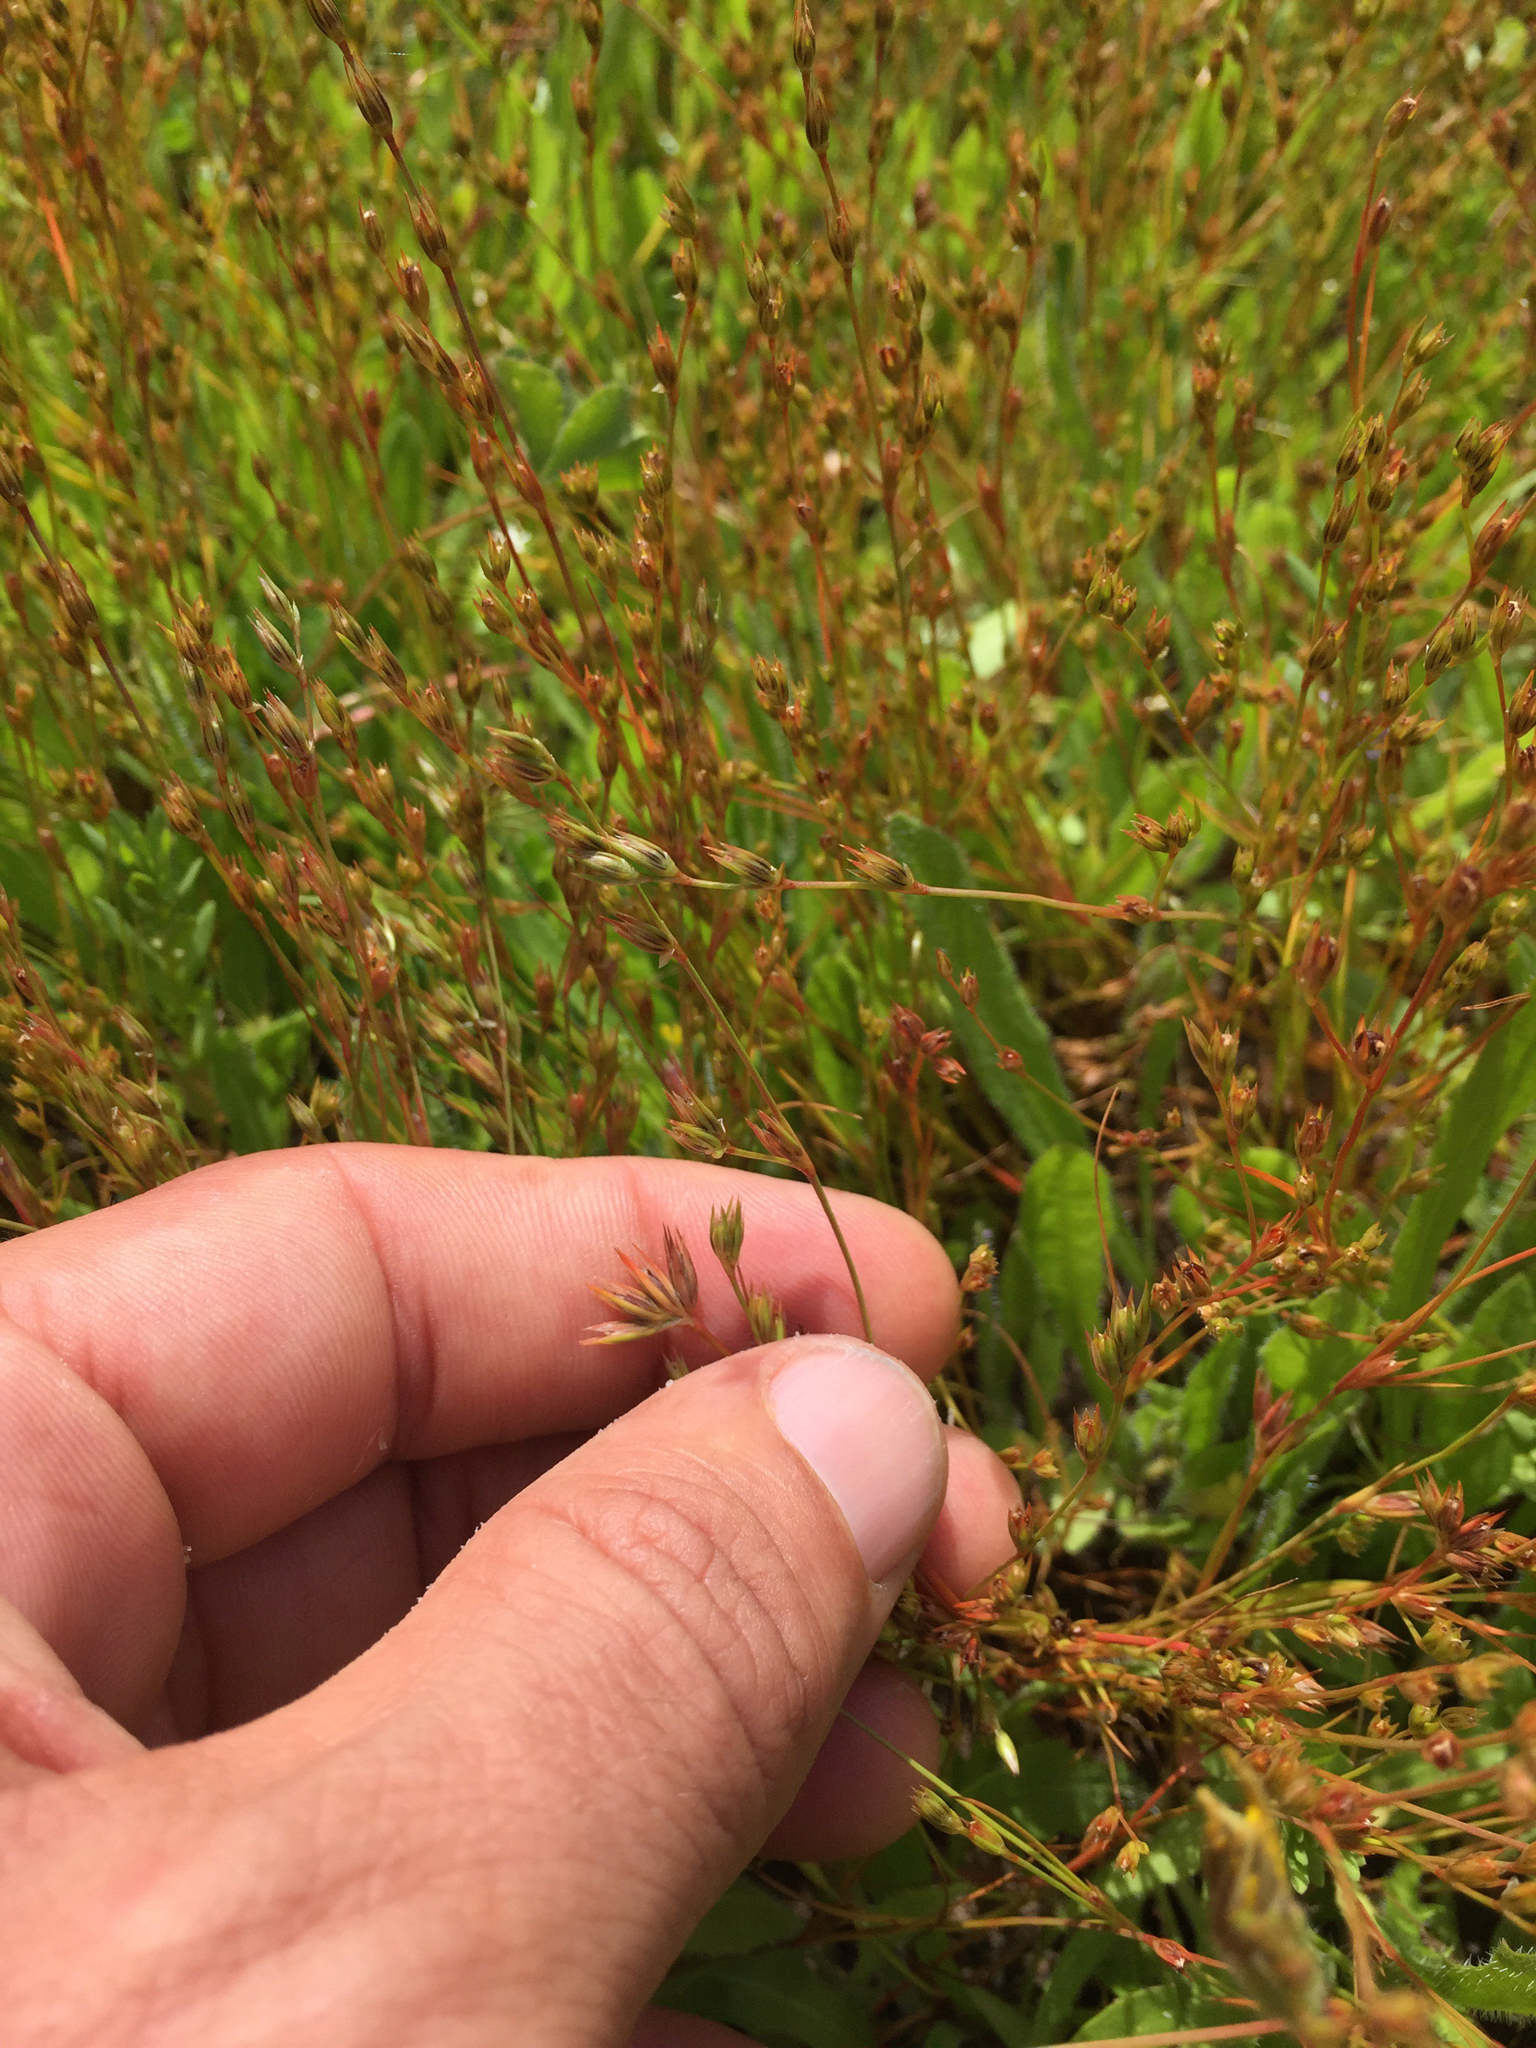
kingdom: Plantae
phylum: Tracheophyta
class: Liliopsida
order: Poales
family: Juncaceae
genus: Juncus
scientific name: Juncus bufonius
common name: Toad rush
